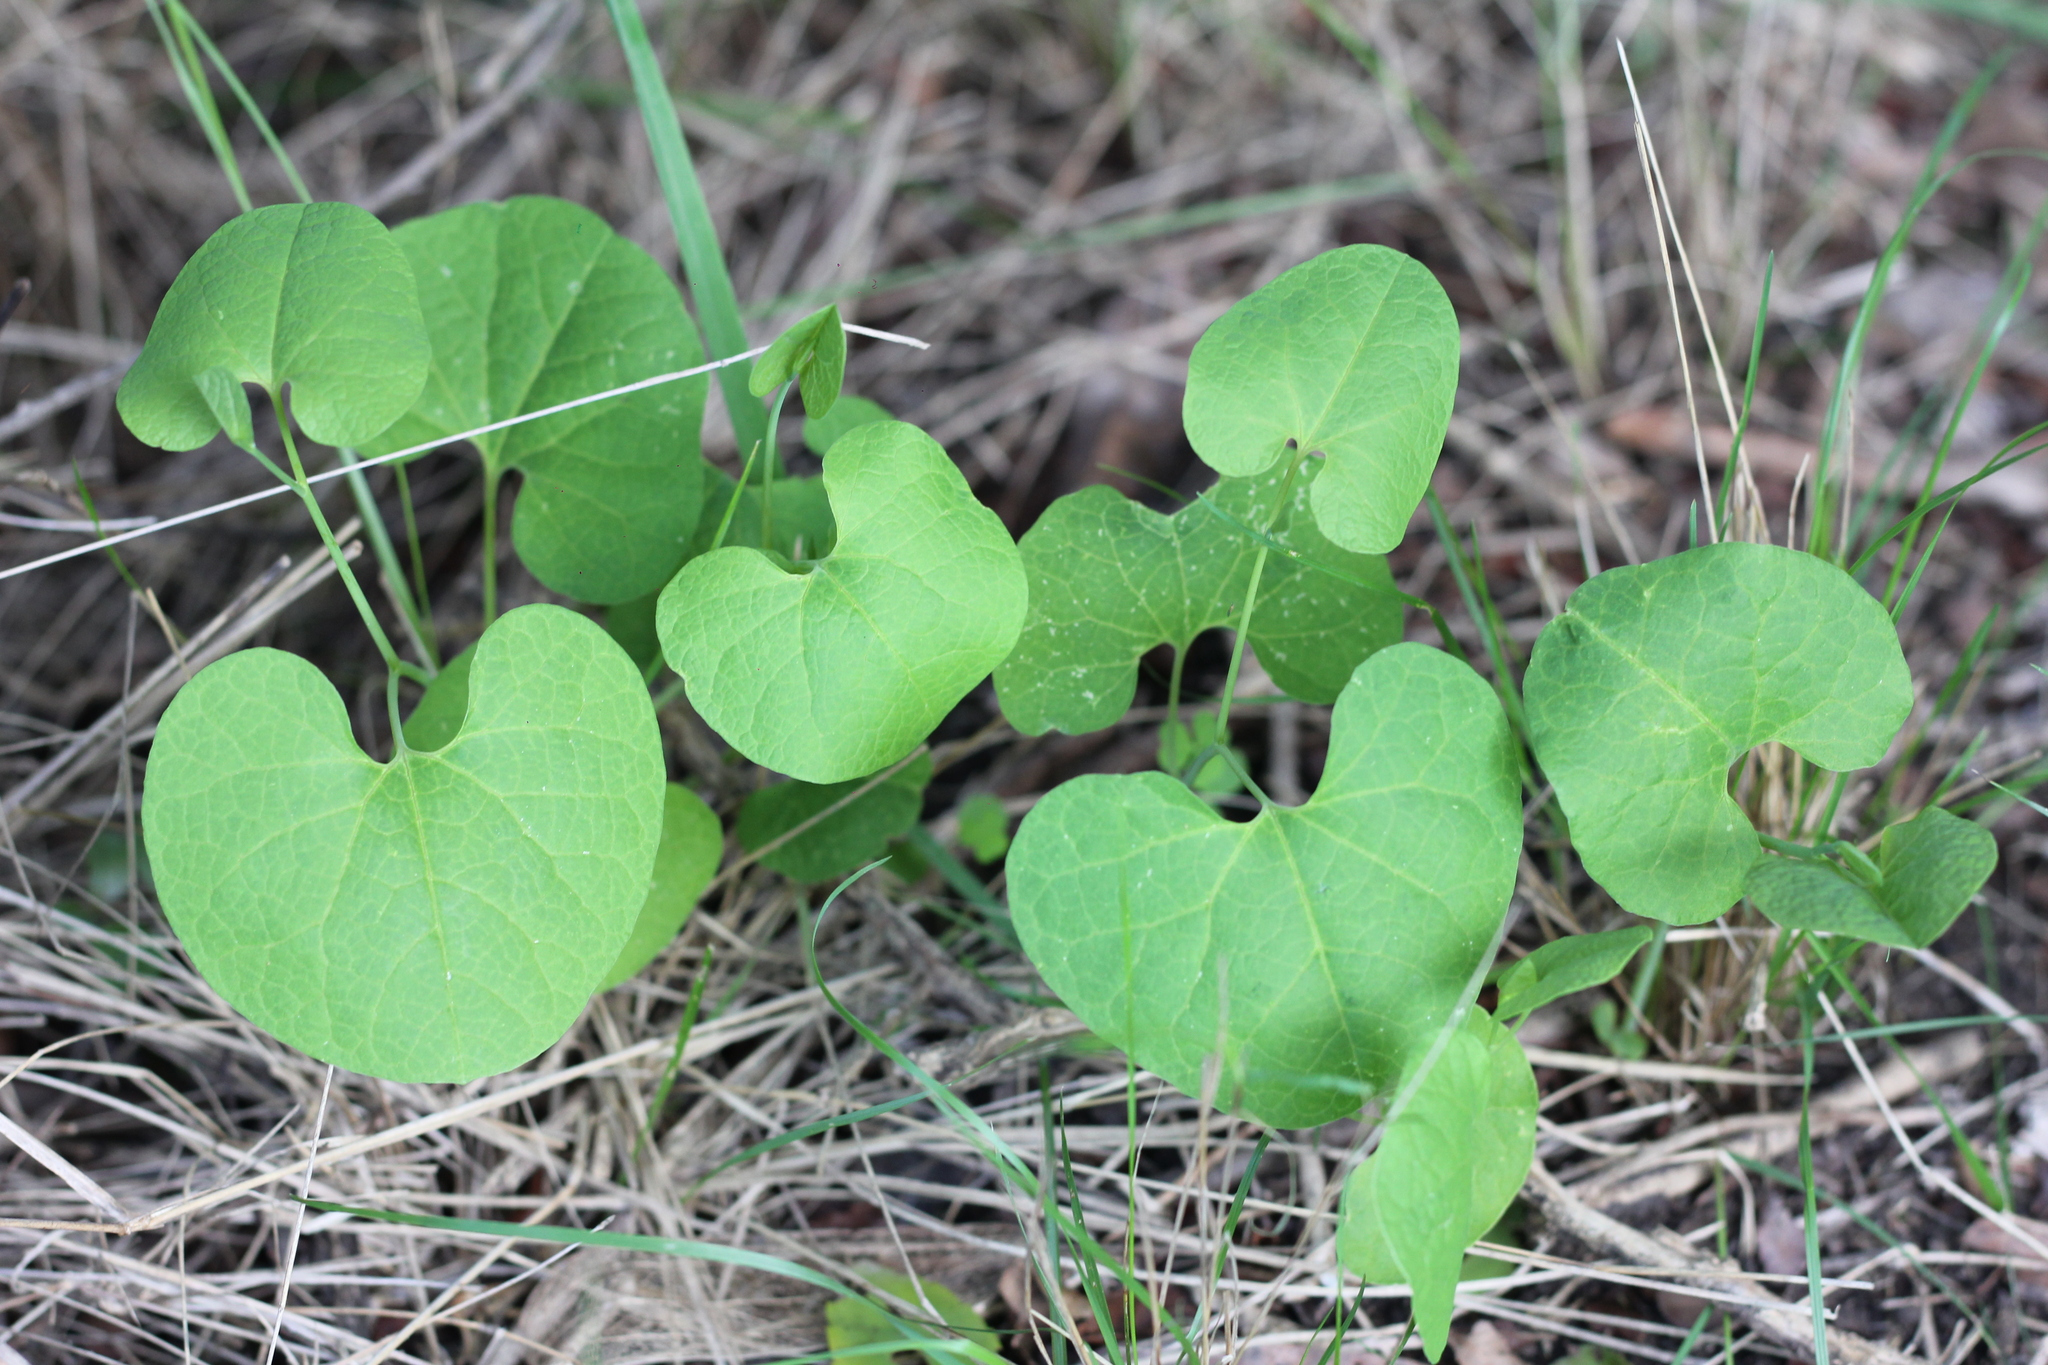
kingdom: Plantae
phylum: Tracheophyta
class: Magnoliopsida
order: Piperales
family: Aristolochiaceae
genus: Aristolochia
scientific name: Aristolochia fimbriata
